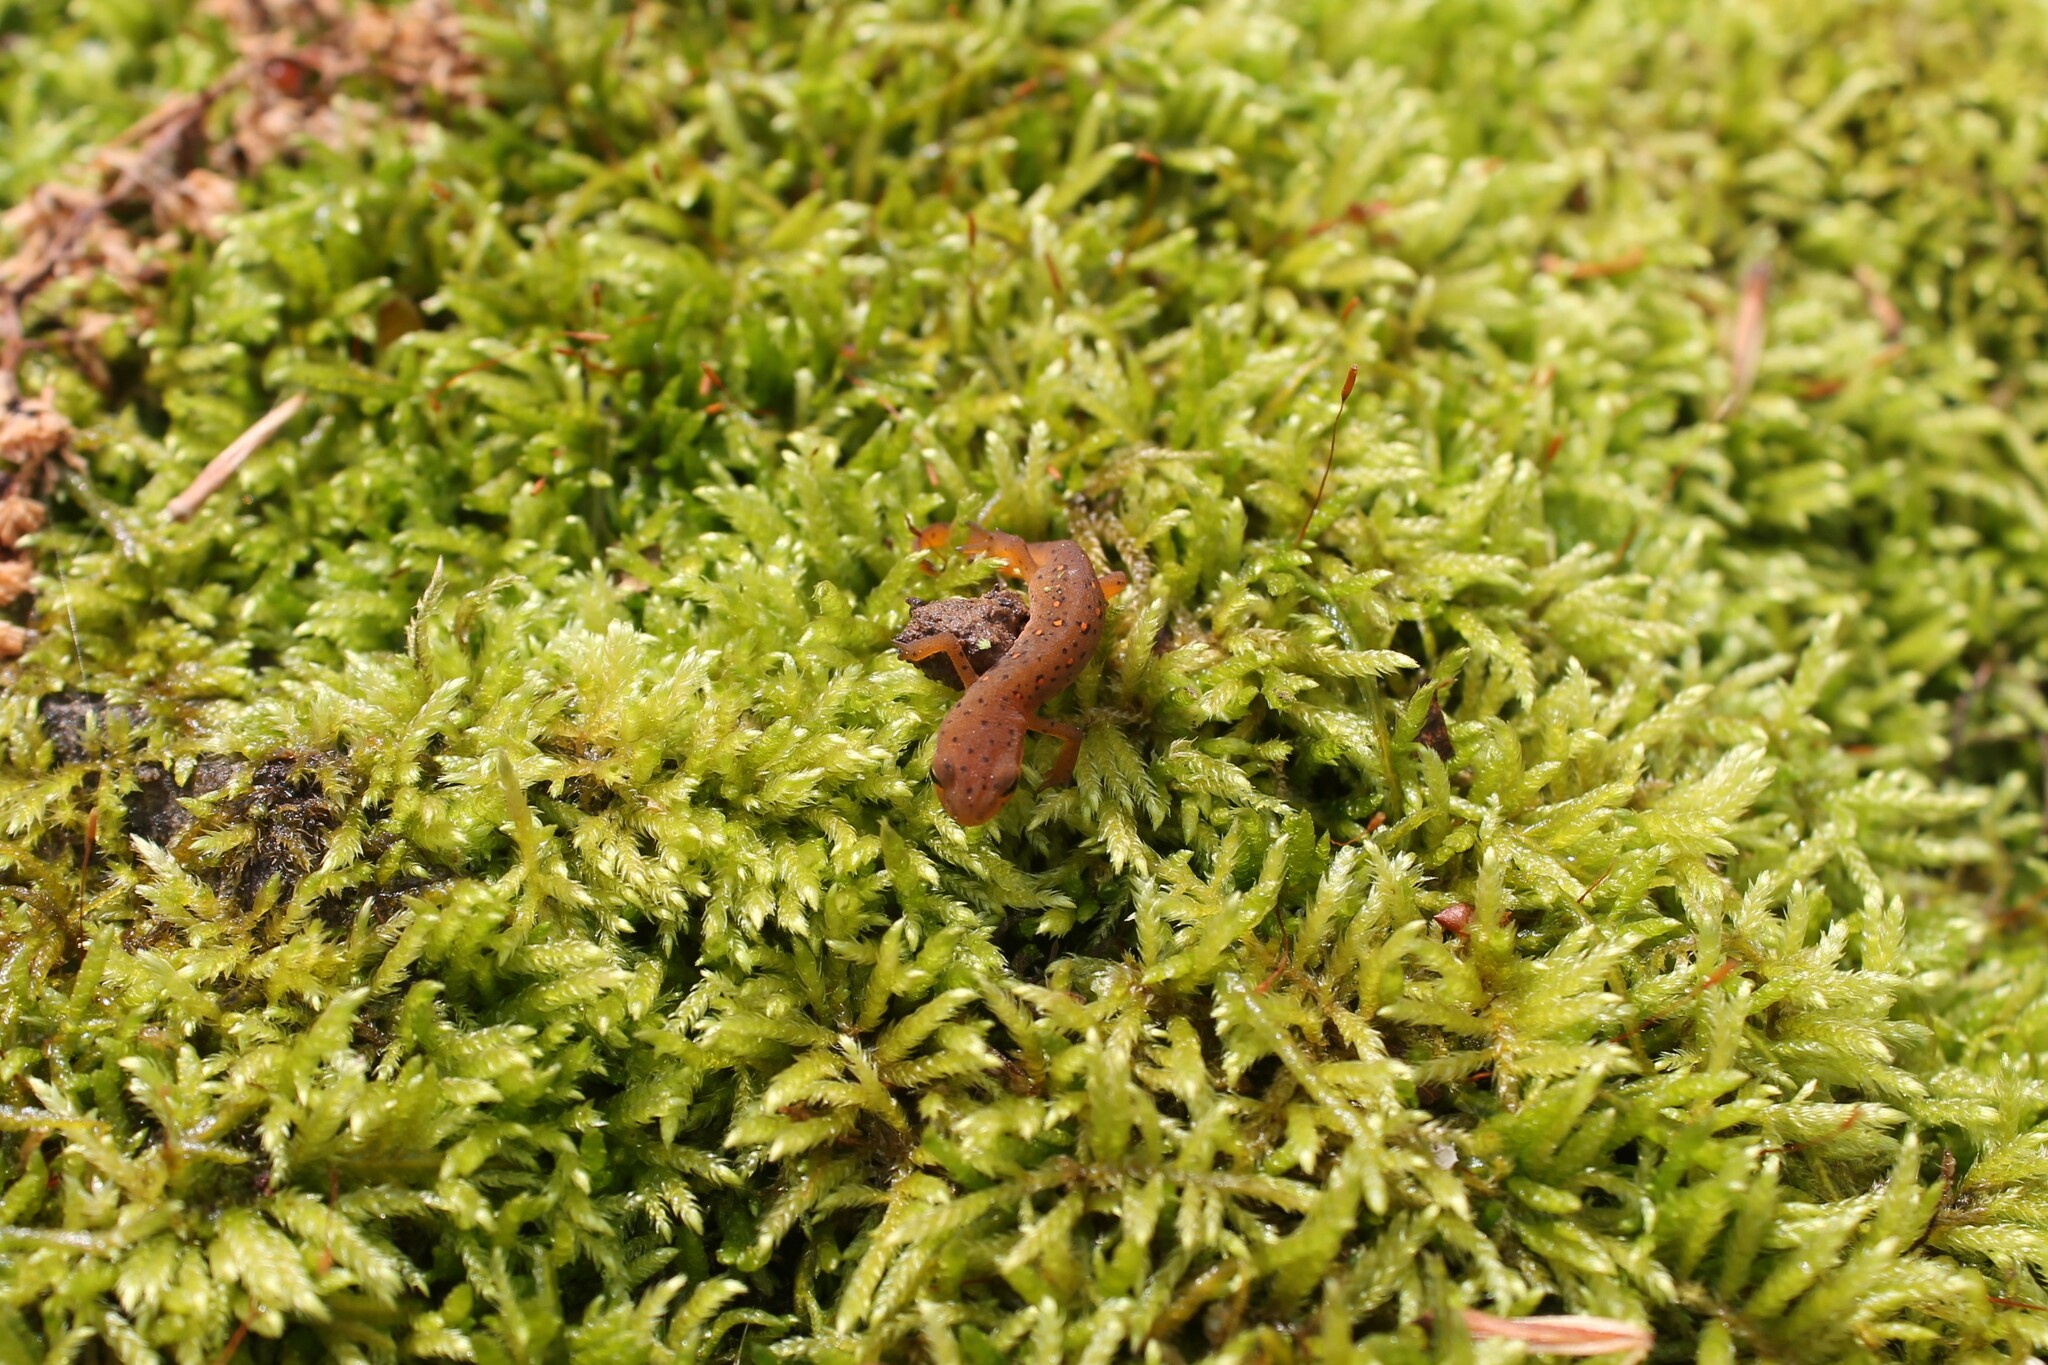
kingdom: Animalia
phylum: Chordata
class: Amphibia
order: Caudata
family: Salamandridae
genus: Notophthalmus
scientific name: Notophthalmus viridescens
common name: Eastern newt
